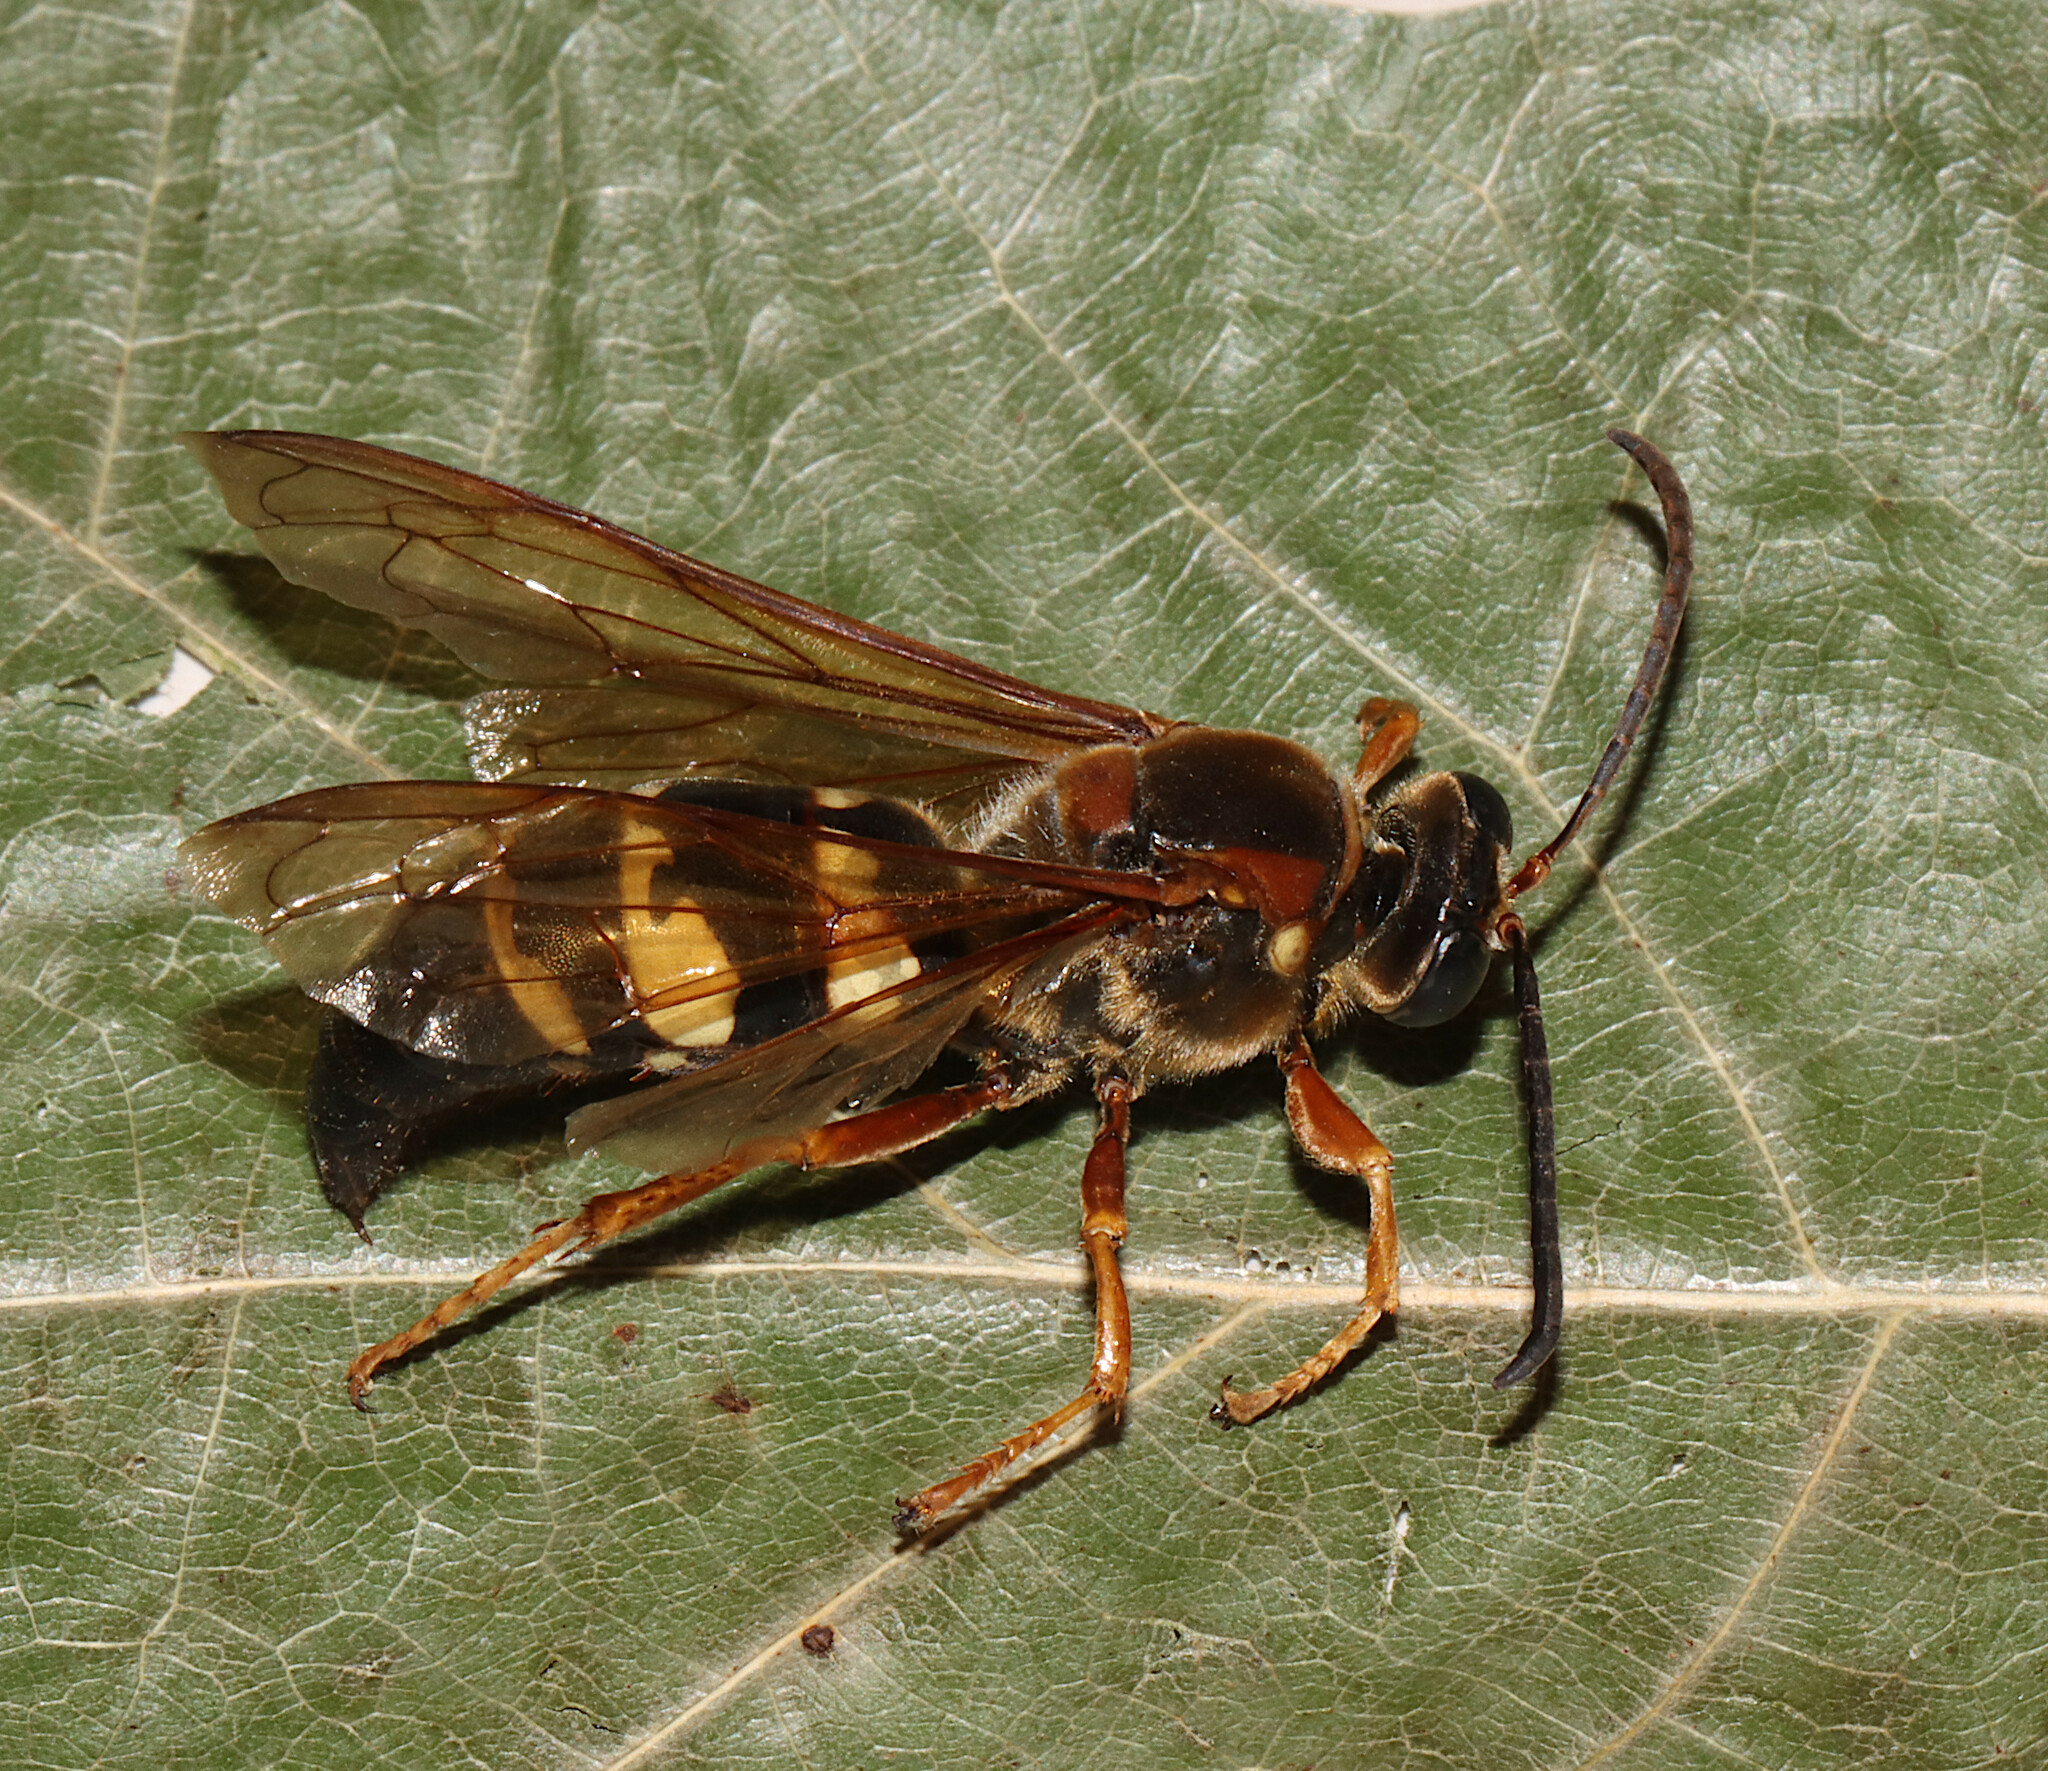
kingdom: Animalia
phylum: Arthropoda
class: Insecta
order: Hymenoptera
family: Crabronidae
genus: Sphecius
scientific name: Sphecius speciosus
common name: Cicada killer
